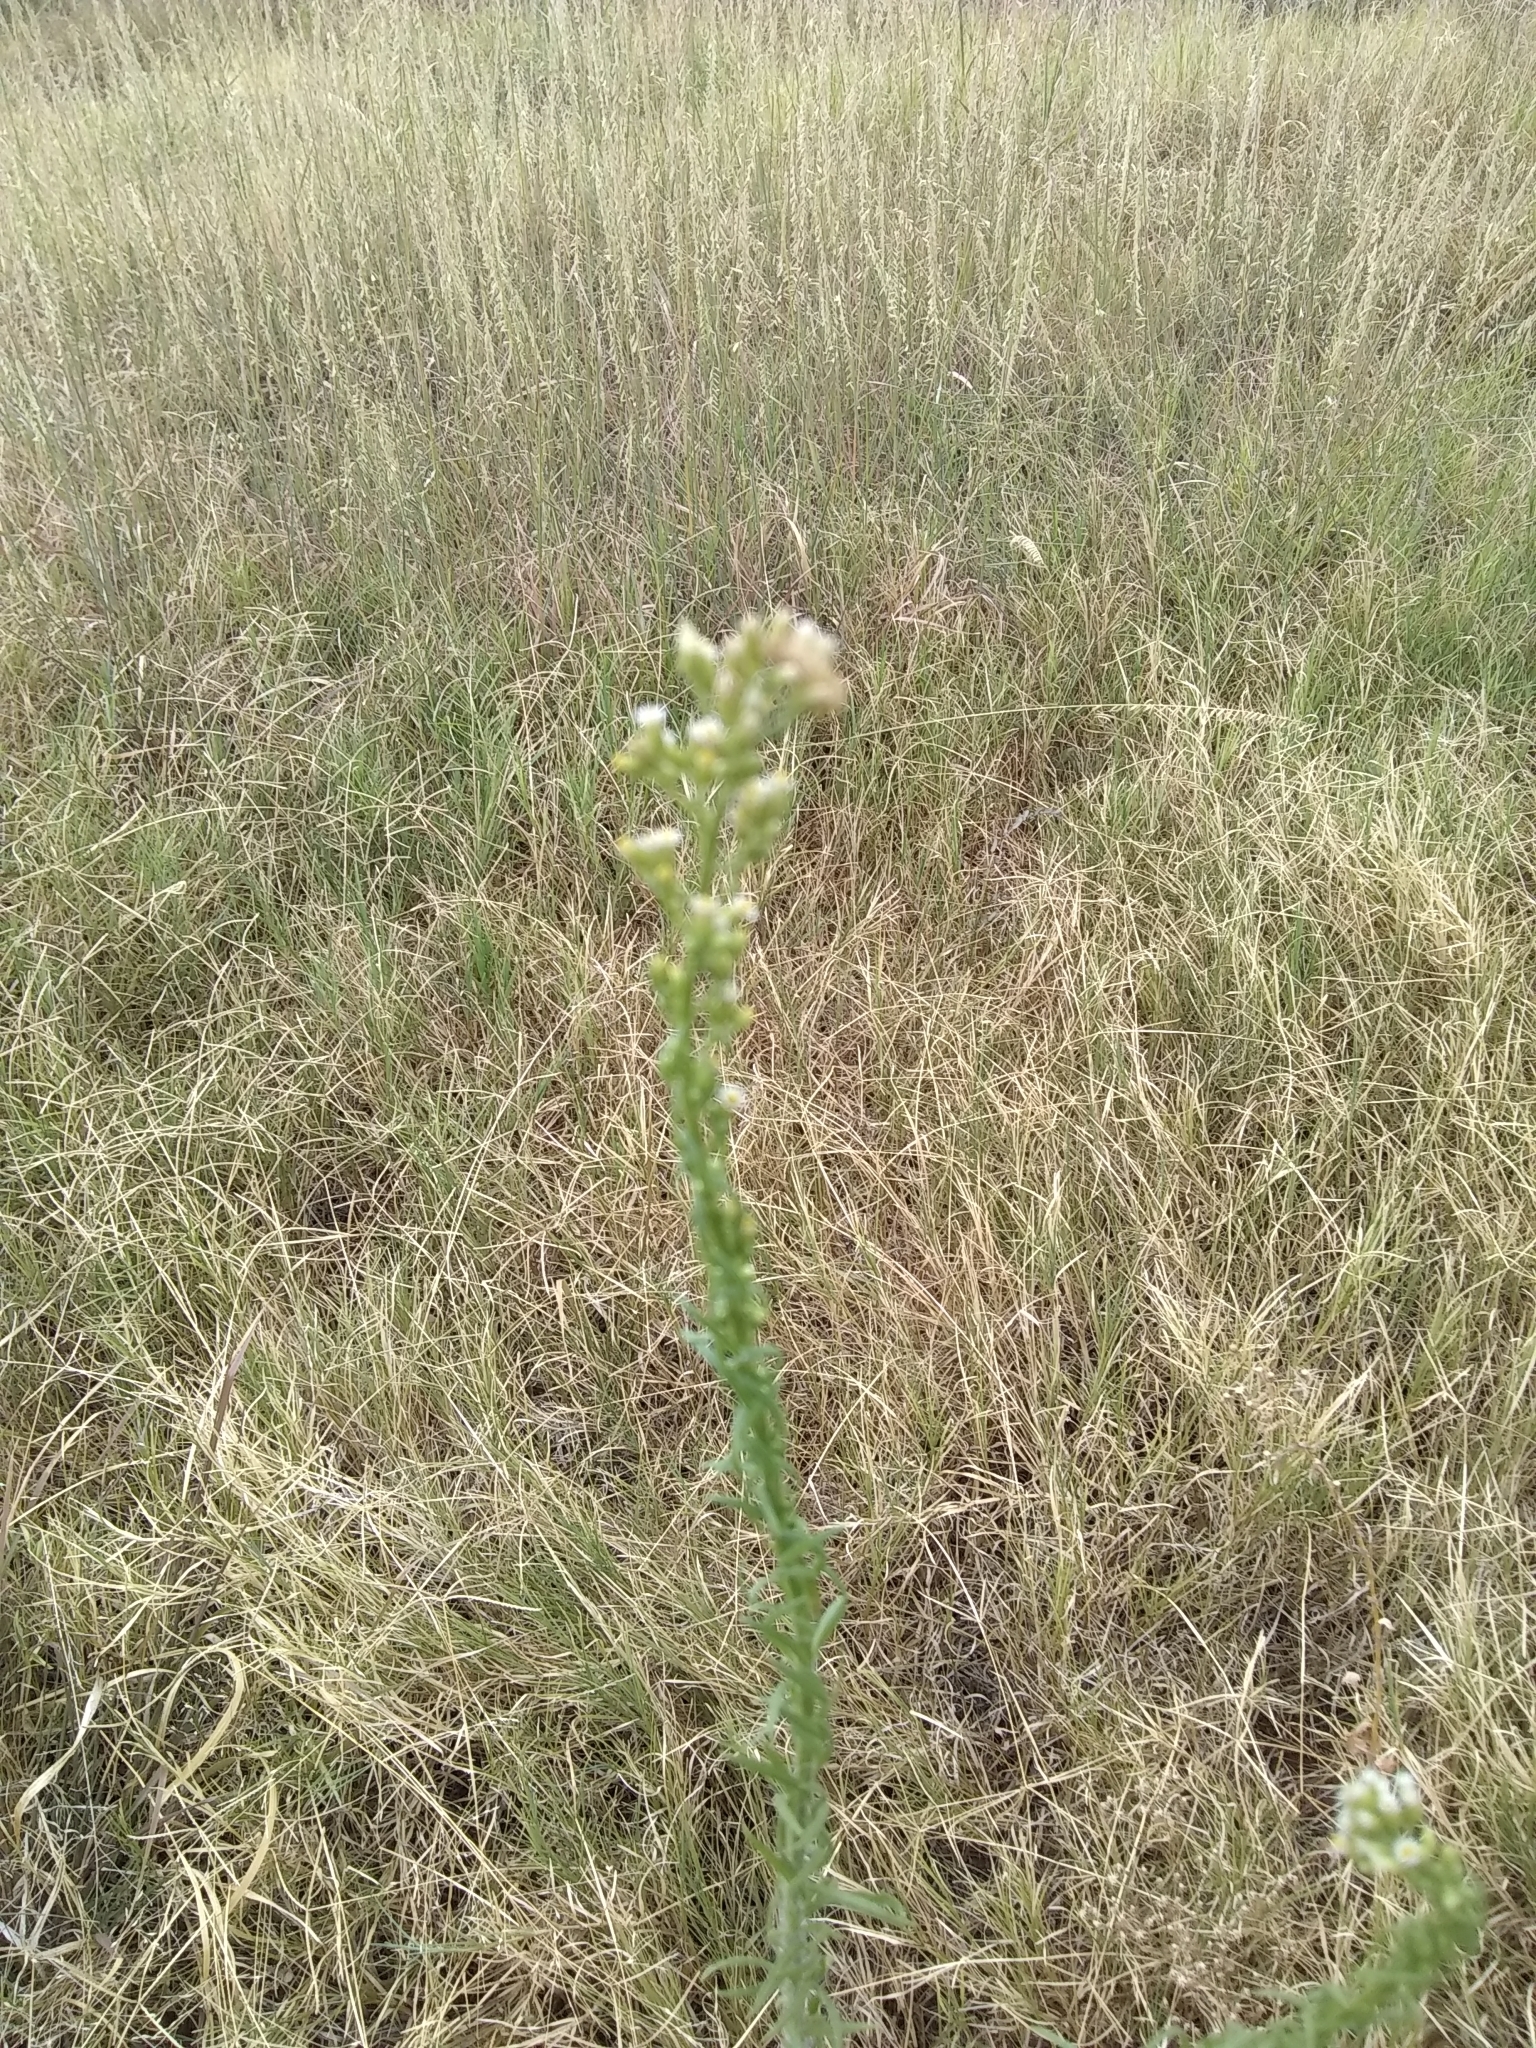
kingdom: Plantae
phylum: Tracheophyta
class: Magnoliopsida
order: Asterales
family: Asteraceae
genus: Erigeron
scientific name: Erigeron canadensis
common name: Canadian fleabane
